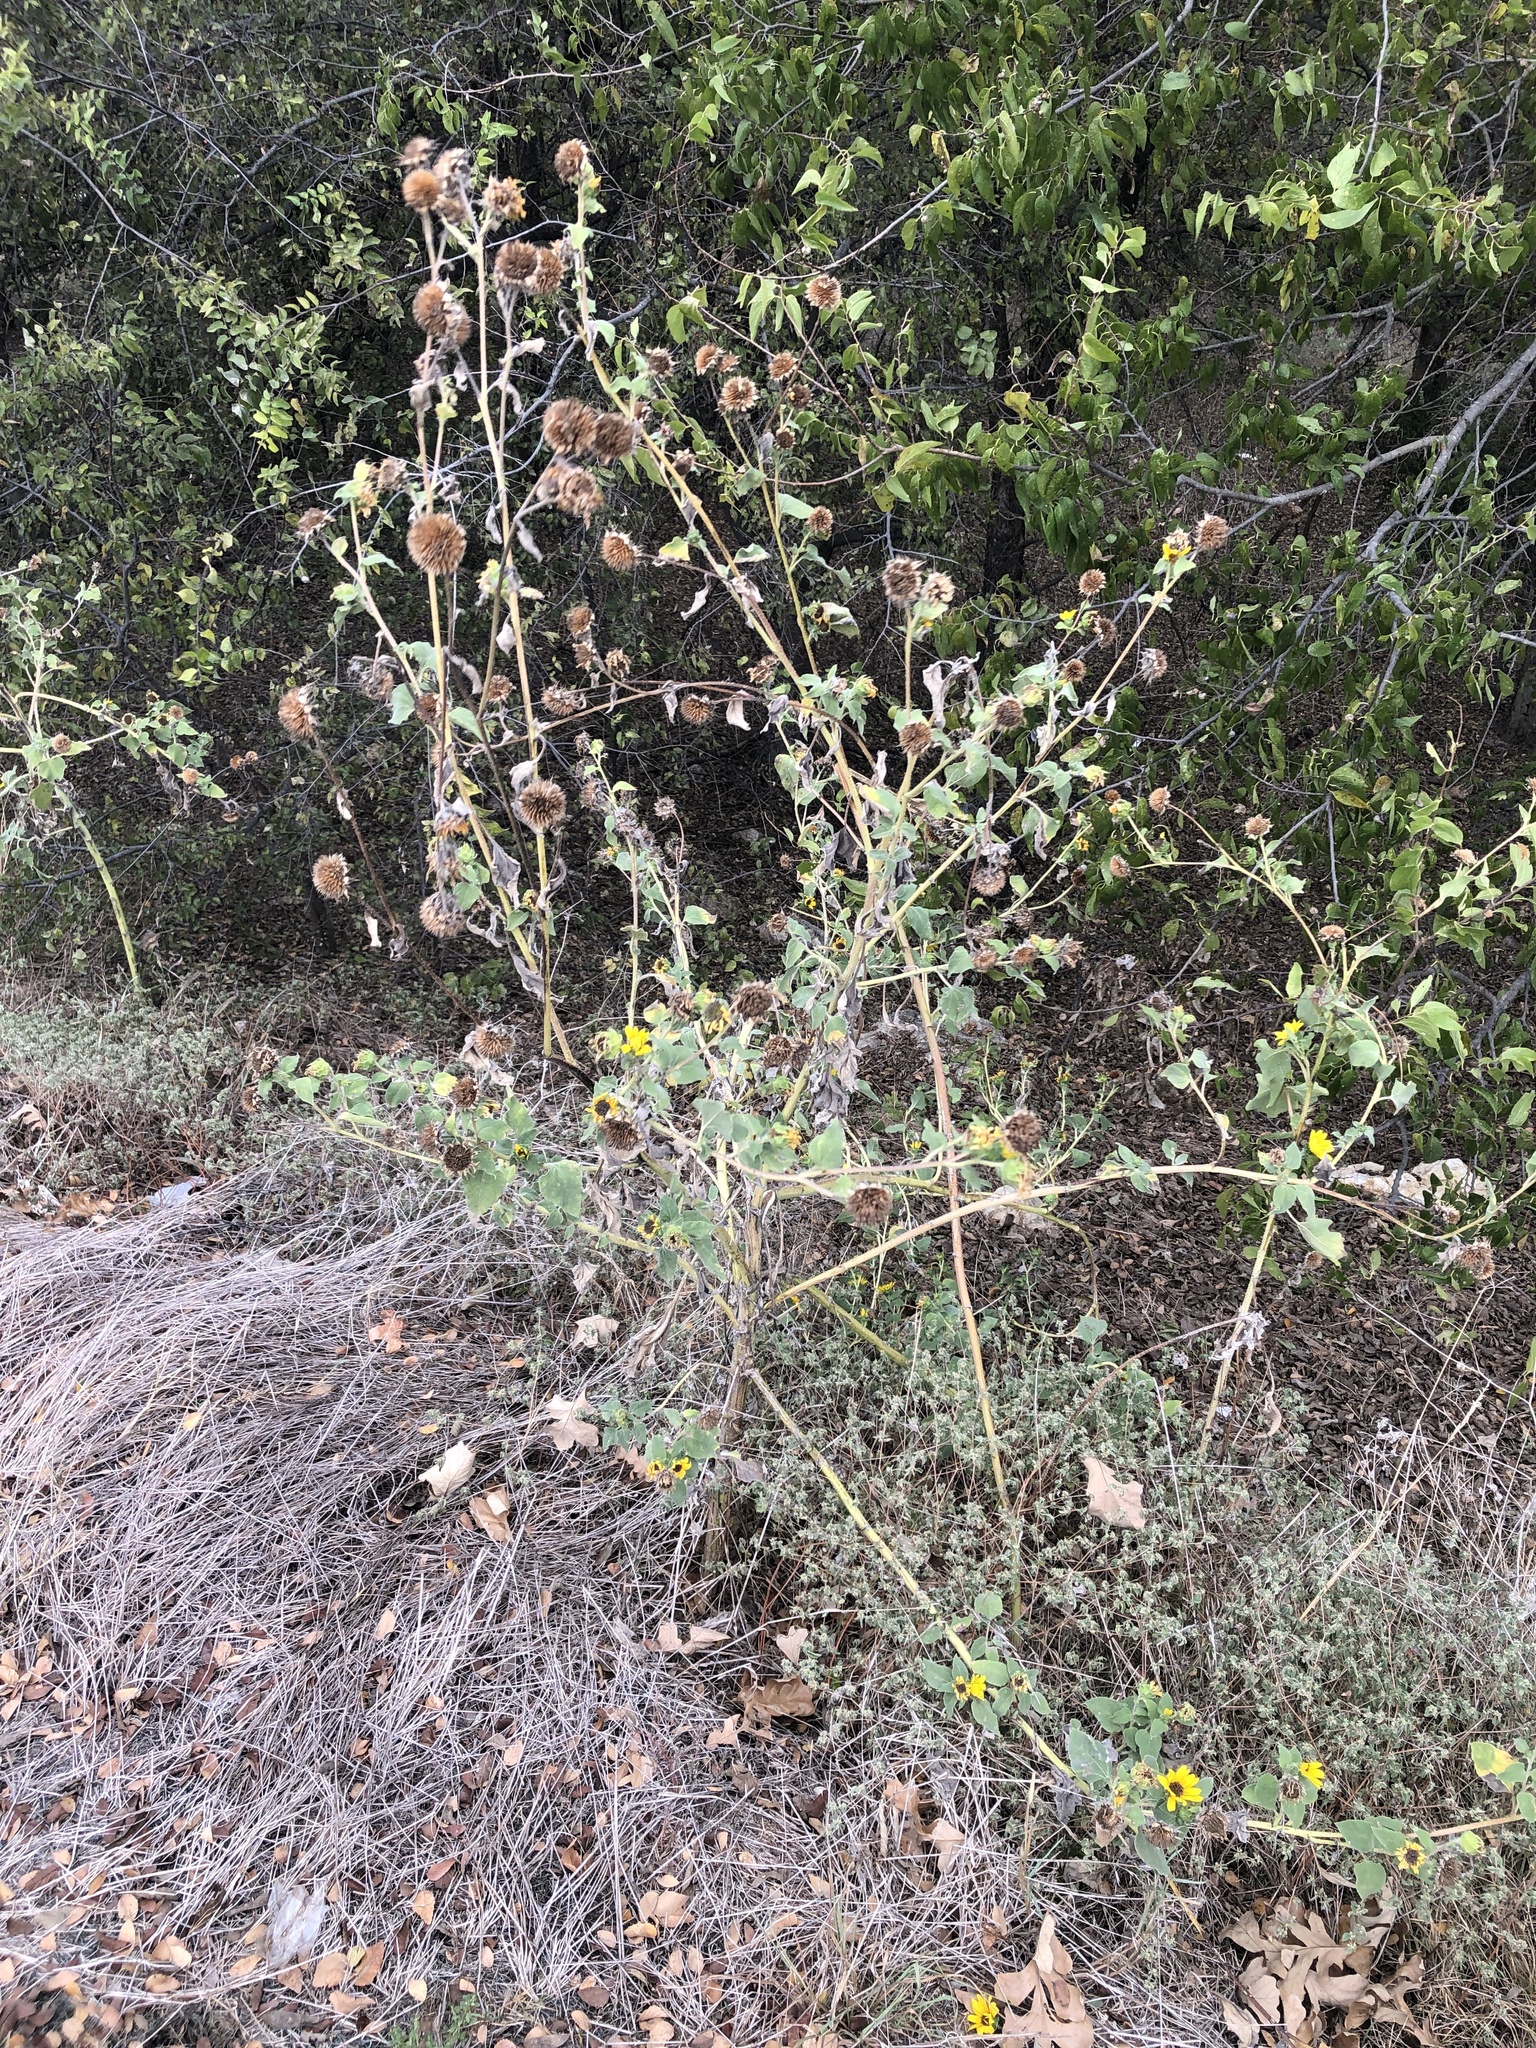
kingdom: Plantae
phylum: Tracheophyta
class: Magnoliopsida
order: Asterales
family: Asteraceae
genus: Helianthus
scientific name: Helianthus annuus
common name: Sunflower
